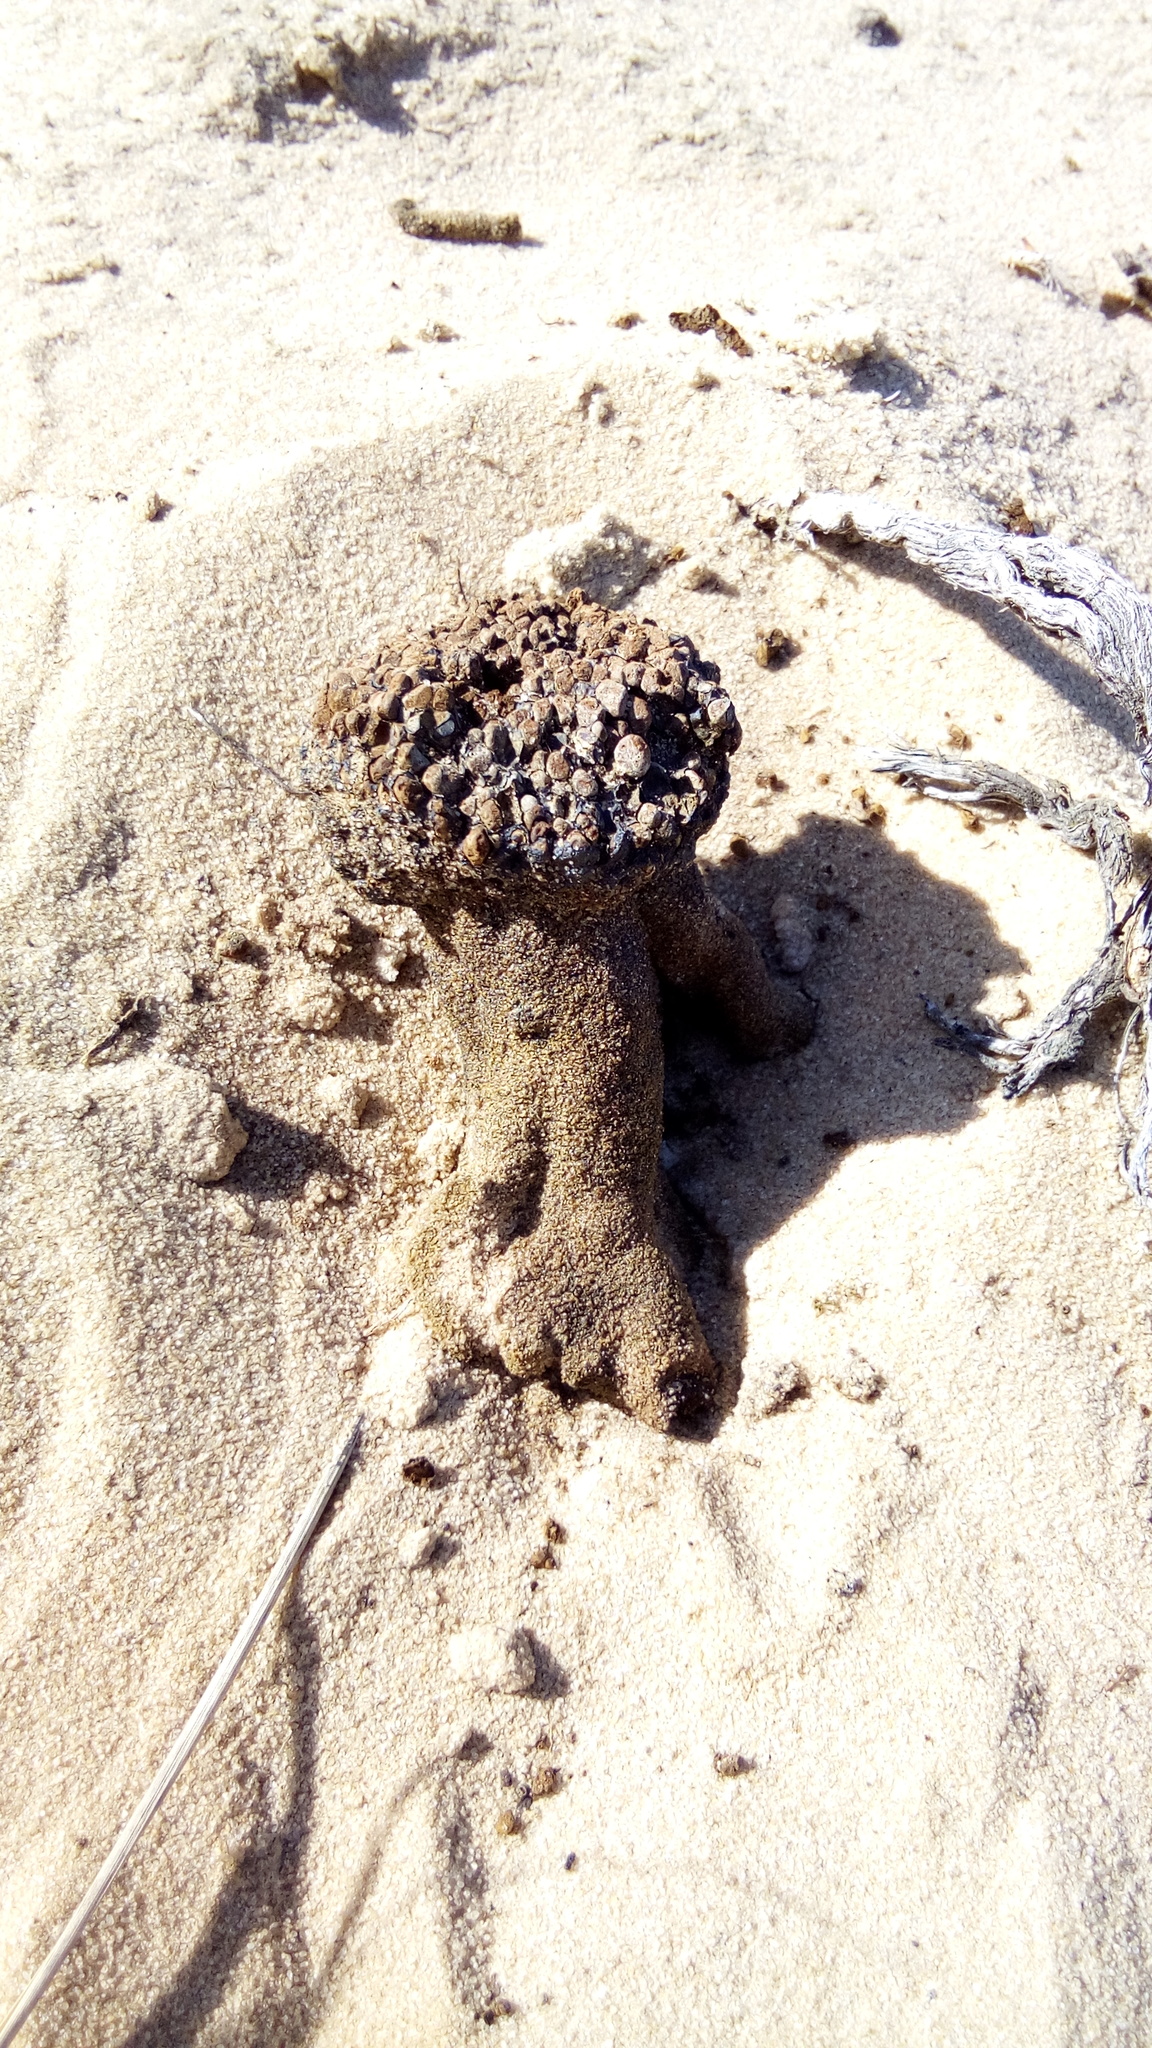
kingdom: Fungi
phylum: Basidiomycota
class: Agaricomycetes
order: Boletales
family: Sclerodermataceae
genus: Pisolithus
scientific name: Pisolithus arhizus
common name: Dyeball
